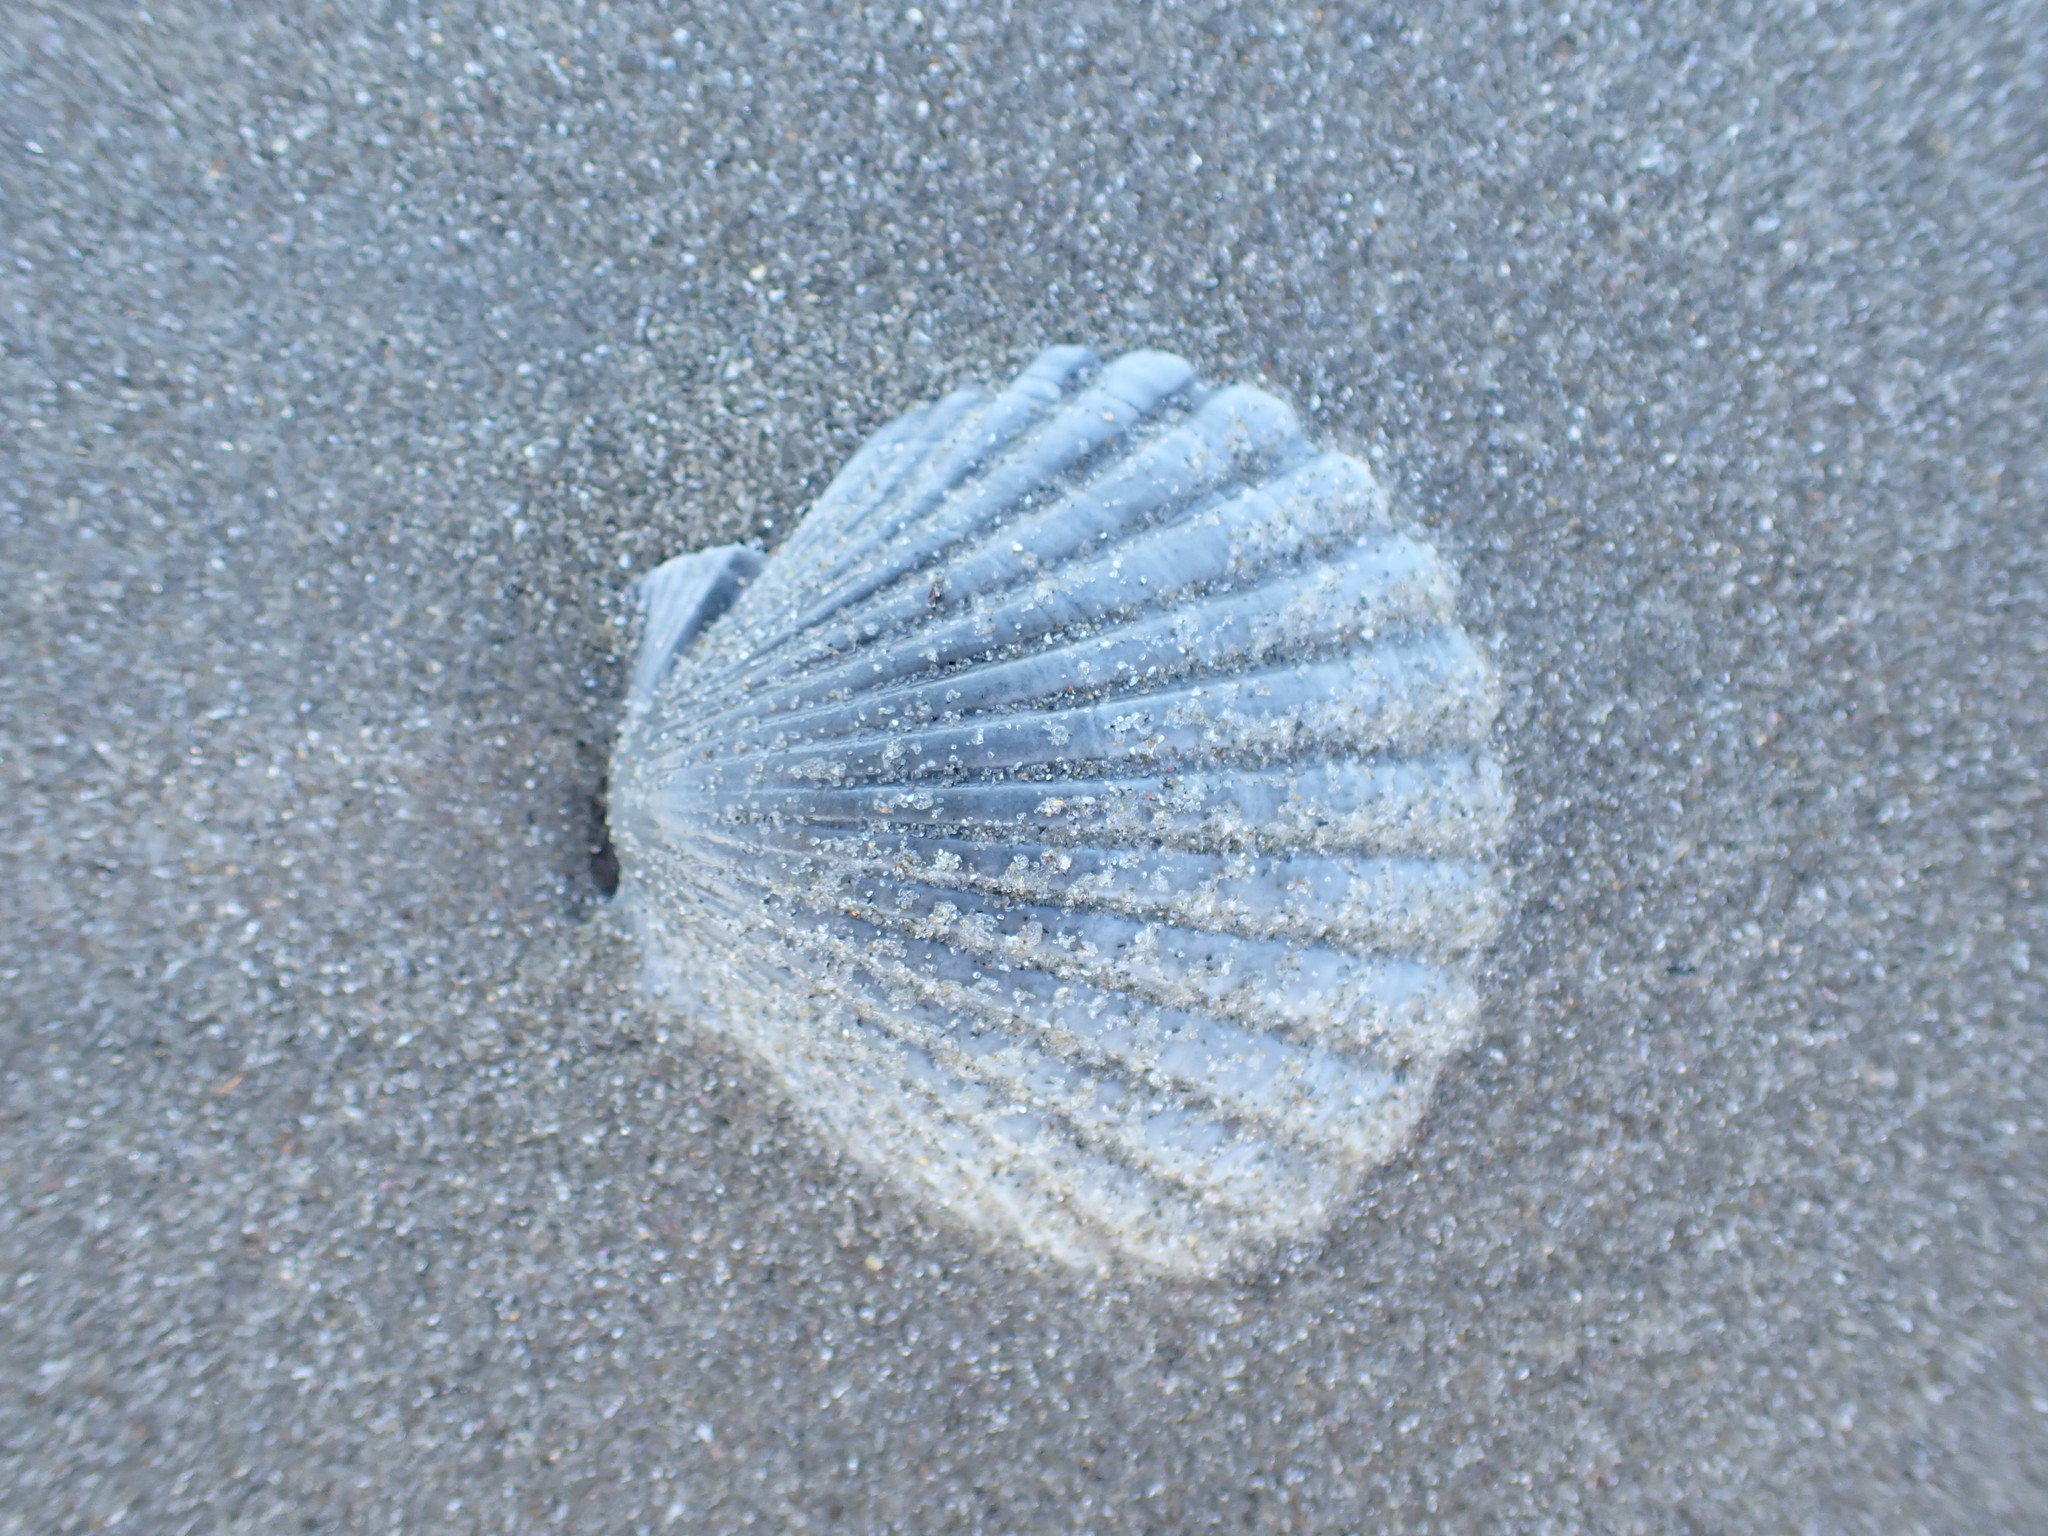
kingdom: Animalia
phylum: Mollusca
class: Bivalvia
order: Pectinida
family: Pectinidae
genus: Pecten
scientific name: Pecten novaezelandiae
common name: New zealand scallop
